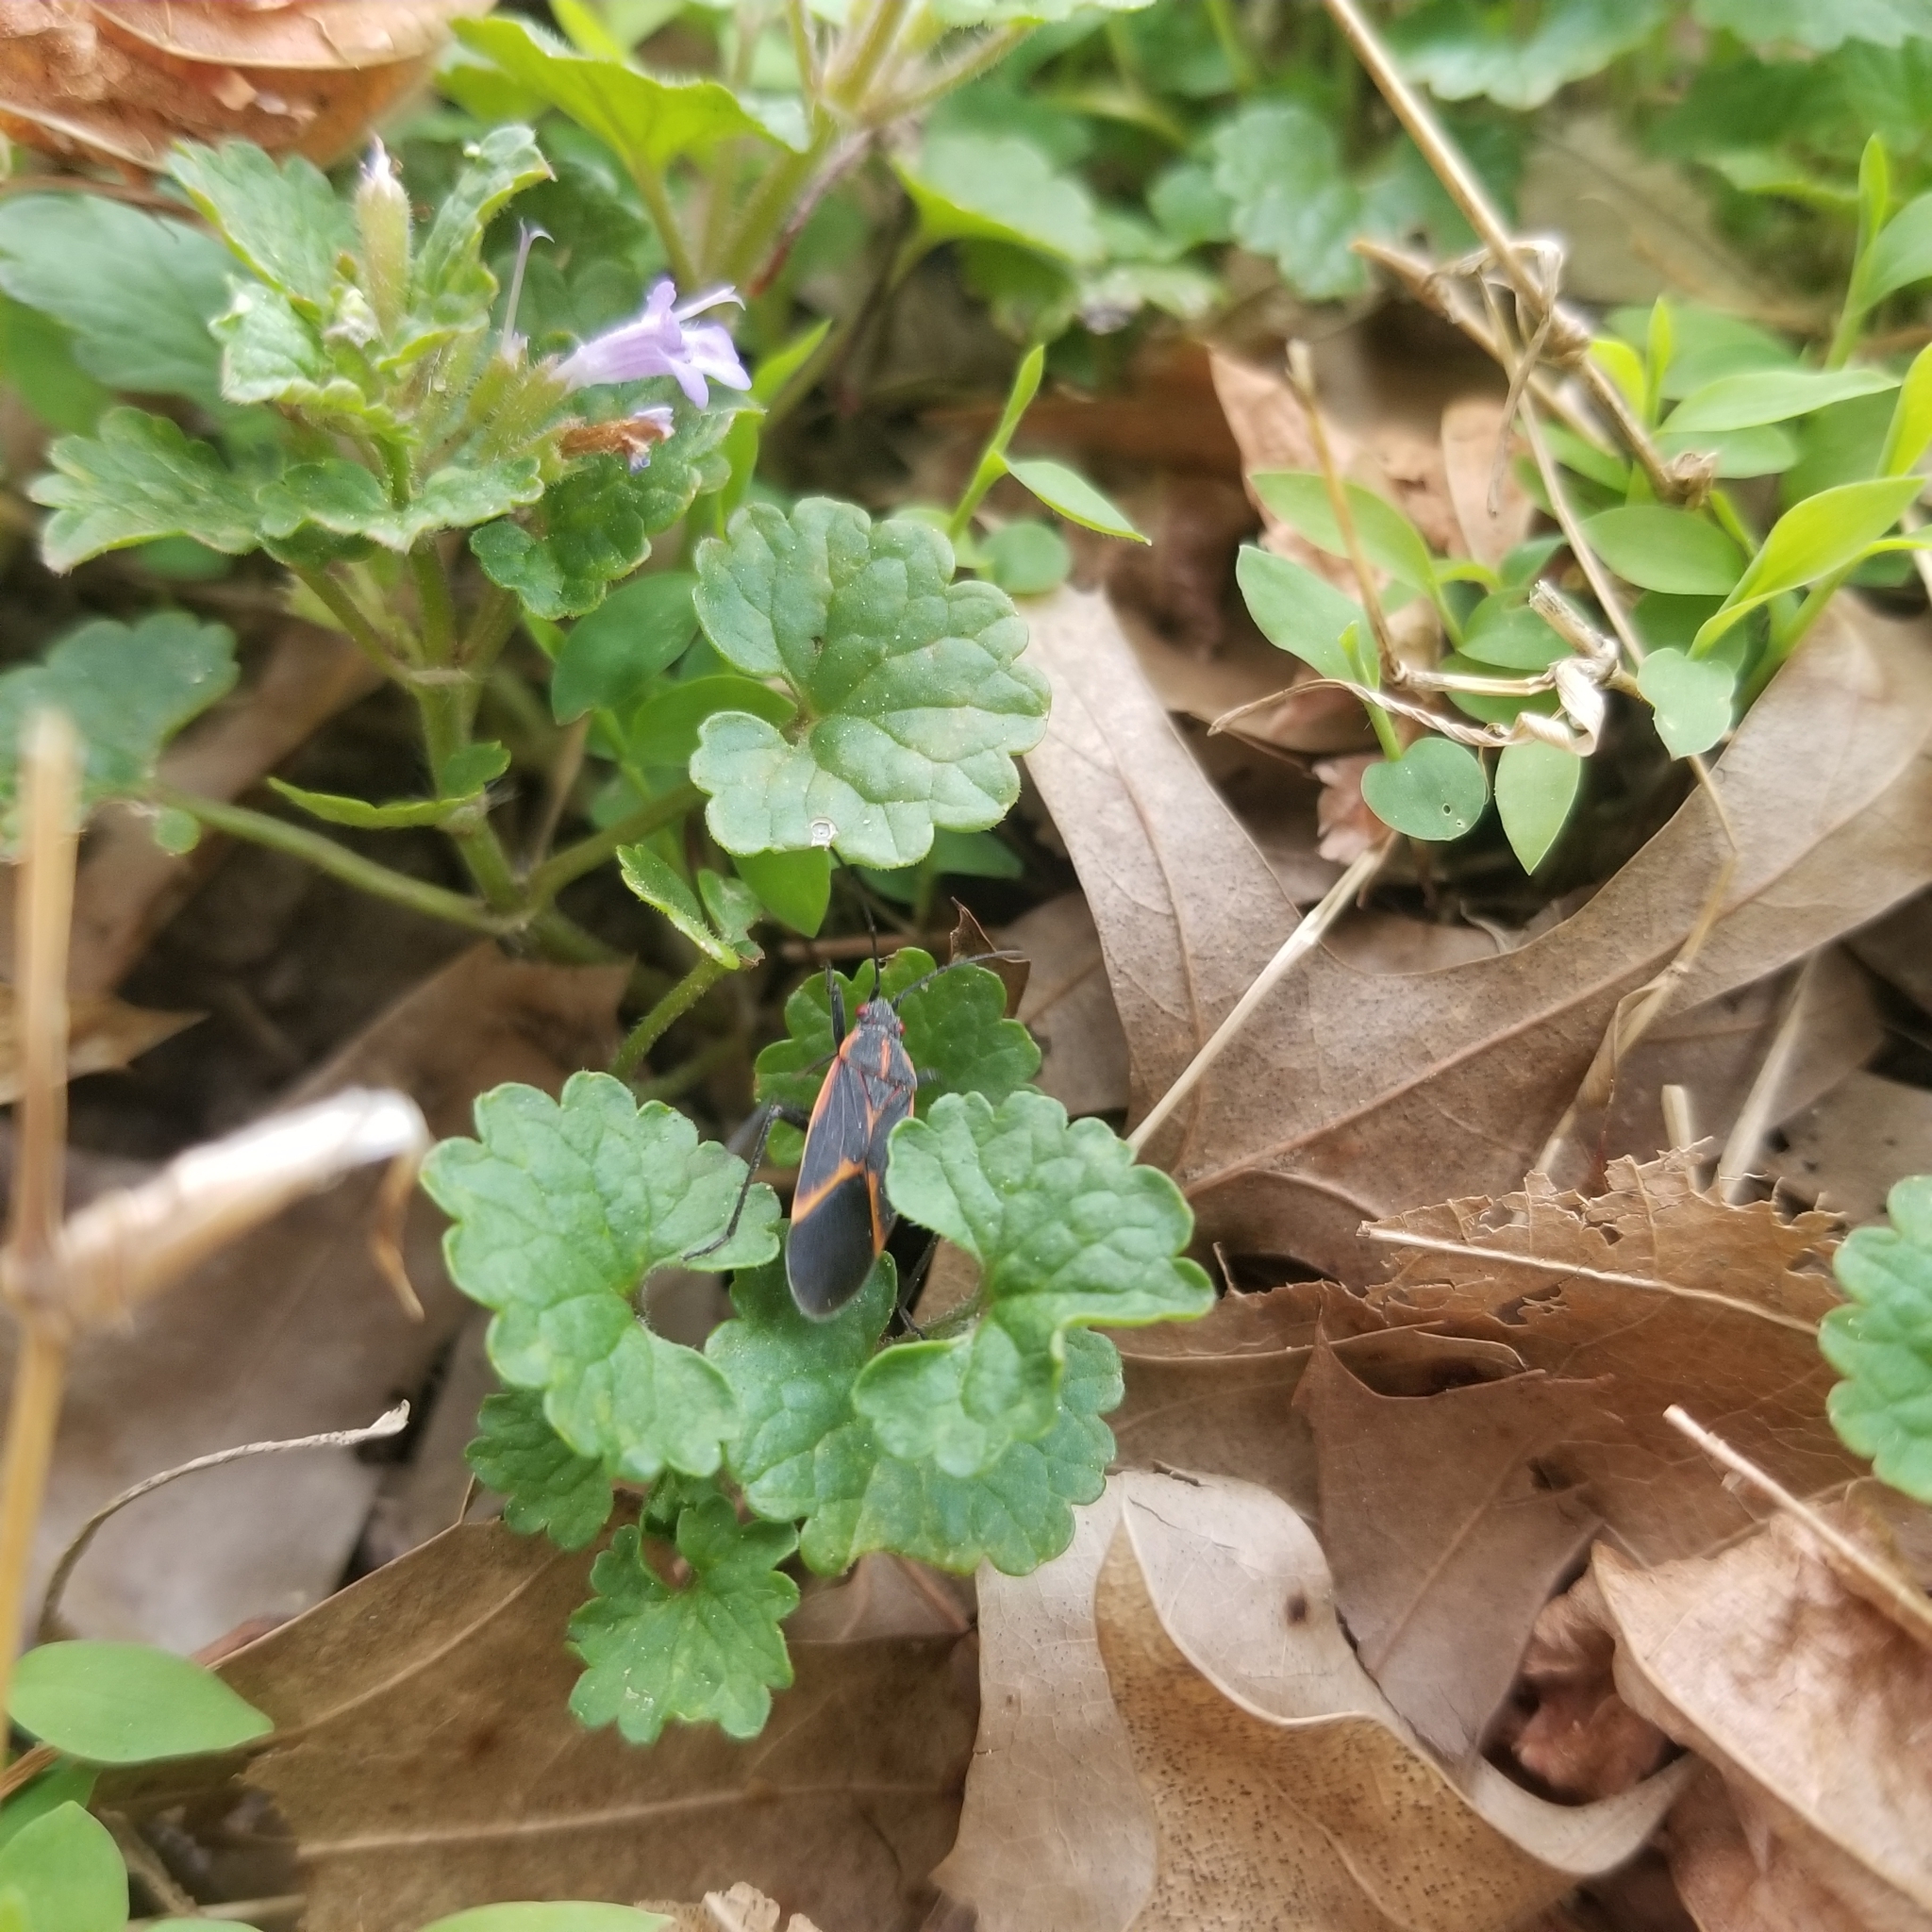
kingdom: Animalia
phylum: Arthropoda
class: Insecta
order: Hemiptera
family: Rhopalidae
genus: Boisea
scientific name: Boisea trivittata
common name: Boxelder bug
